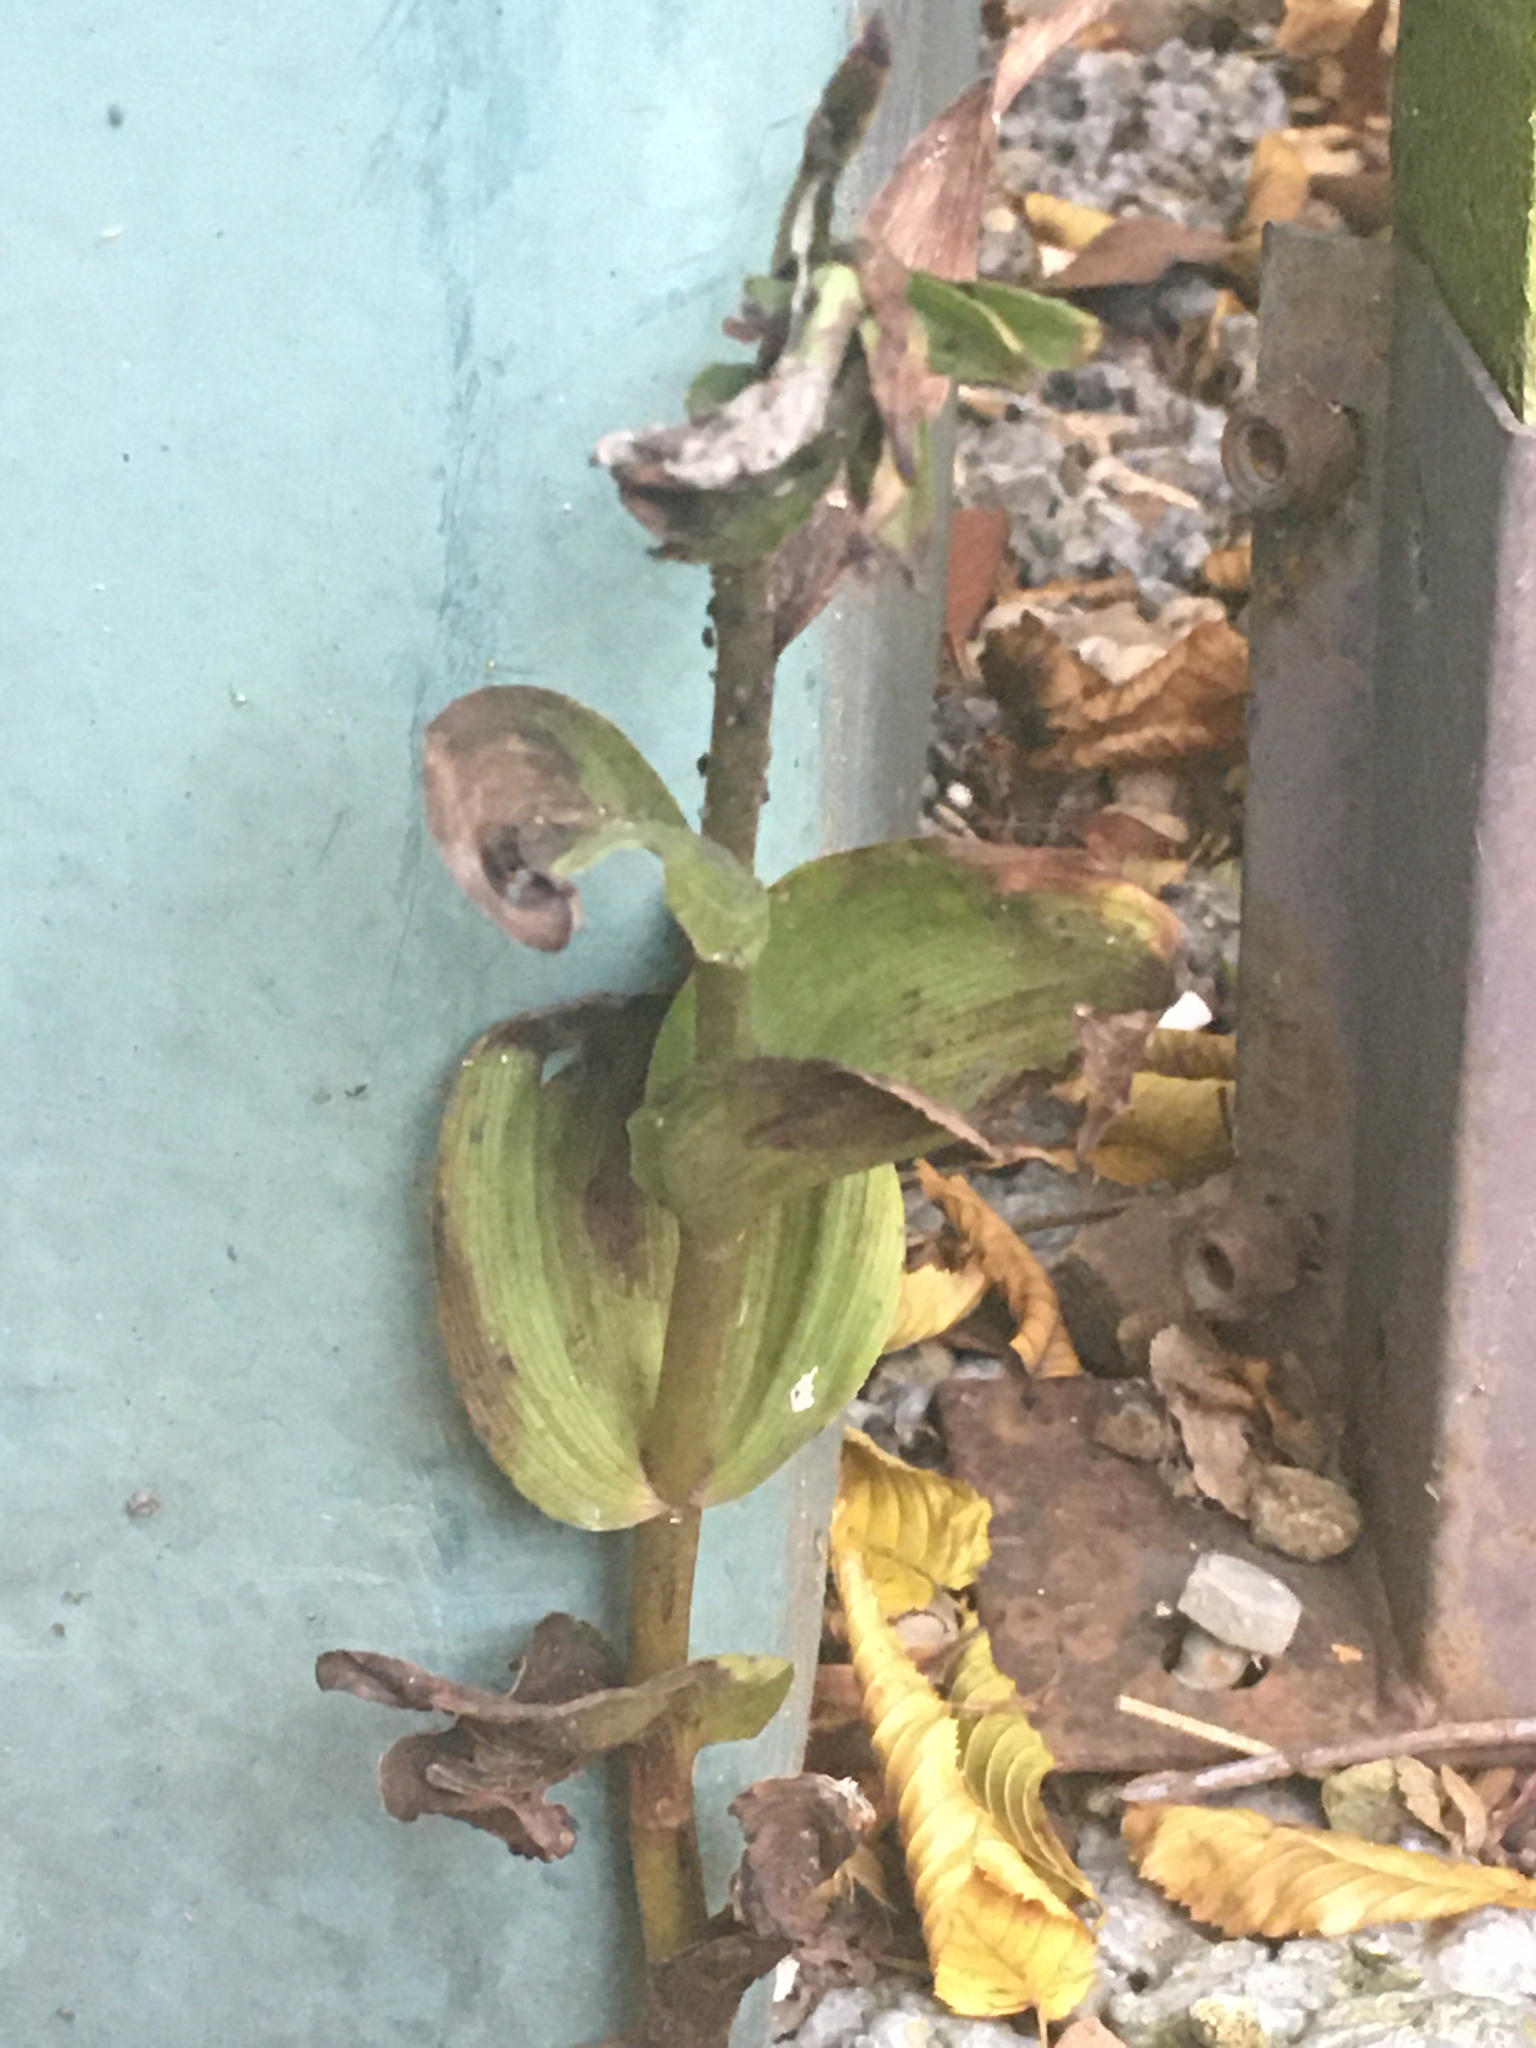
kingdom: Plantae
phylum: Tracheophyta
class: Liliopsida
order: Asparagales
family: Orchidaceae
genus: Epipactis
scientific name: Epipactis helleborine
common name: Broad-leaved helleborine
